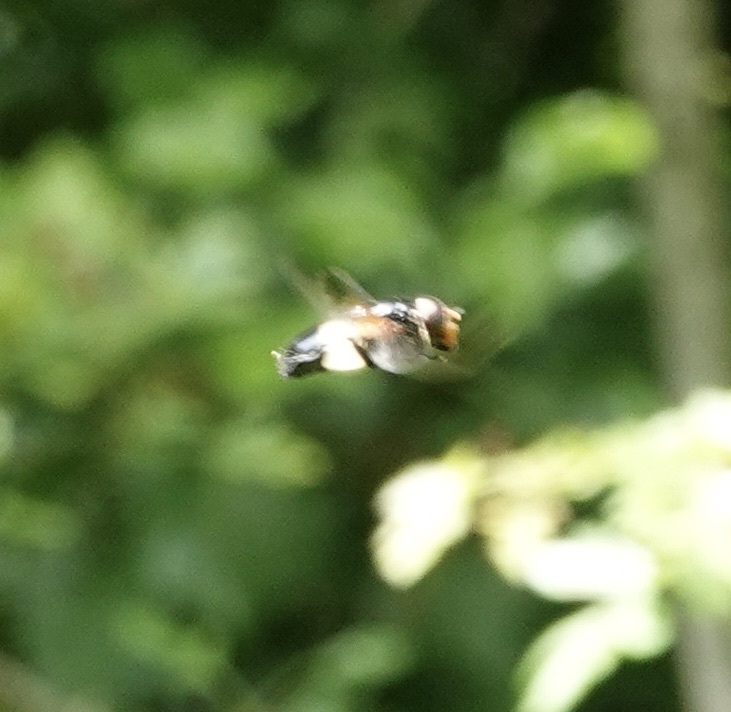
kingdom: Animalia
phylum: Arthropoda
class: Insecta
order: Diptera
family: Syrphidae
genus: Volucella
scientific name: Volucella pellucens
